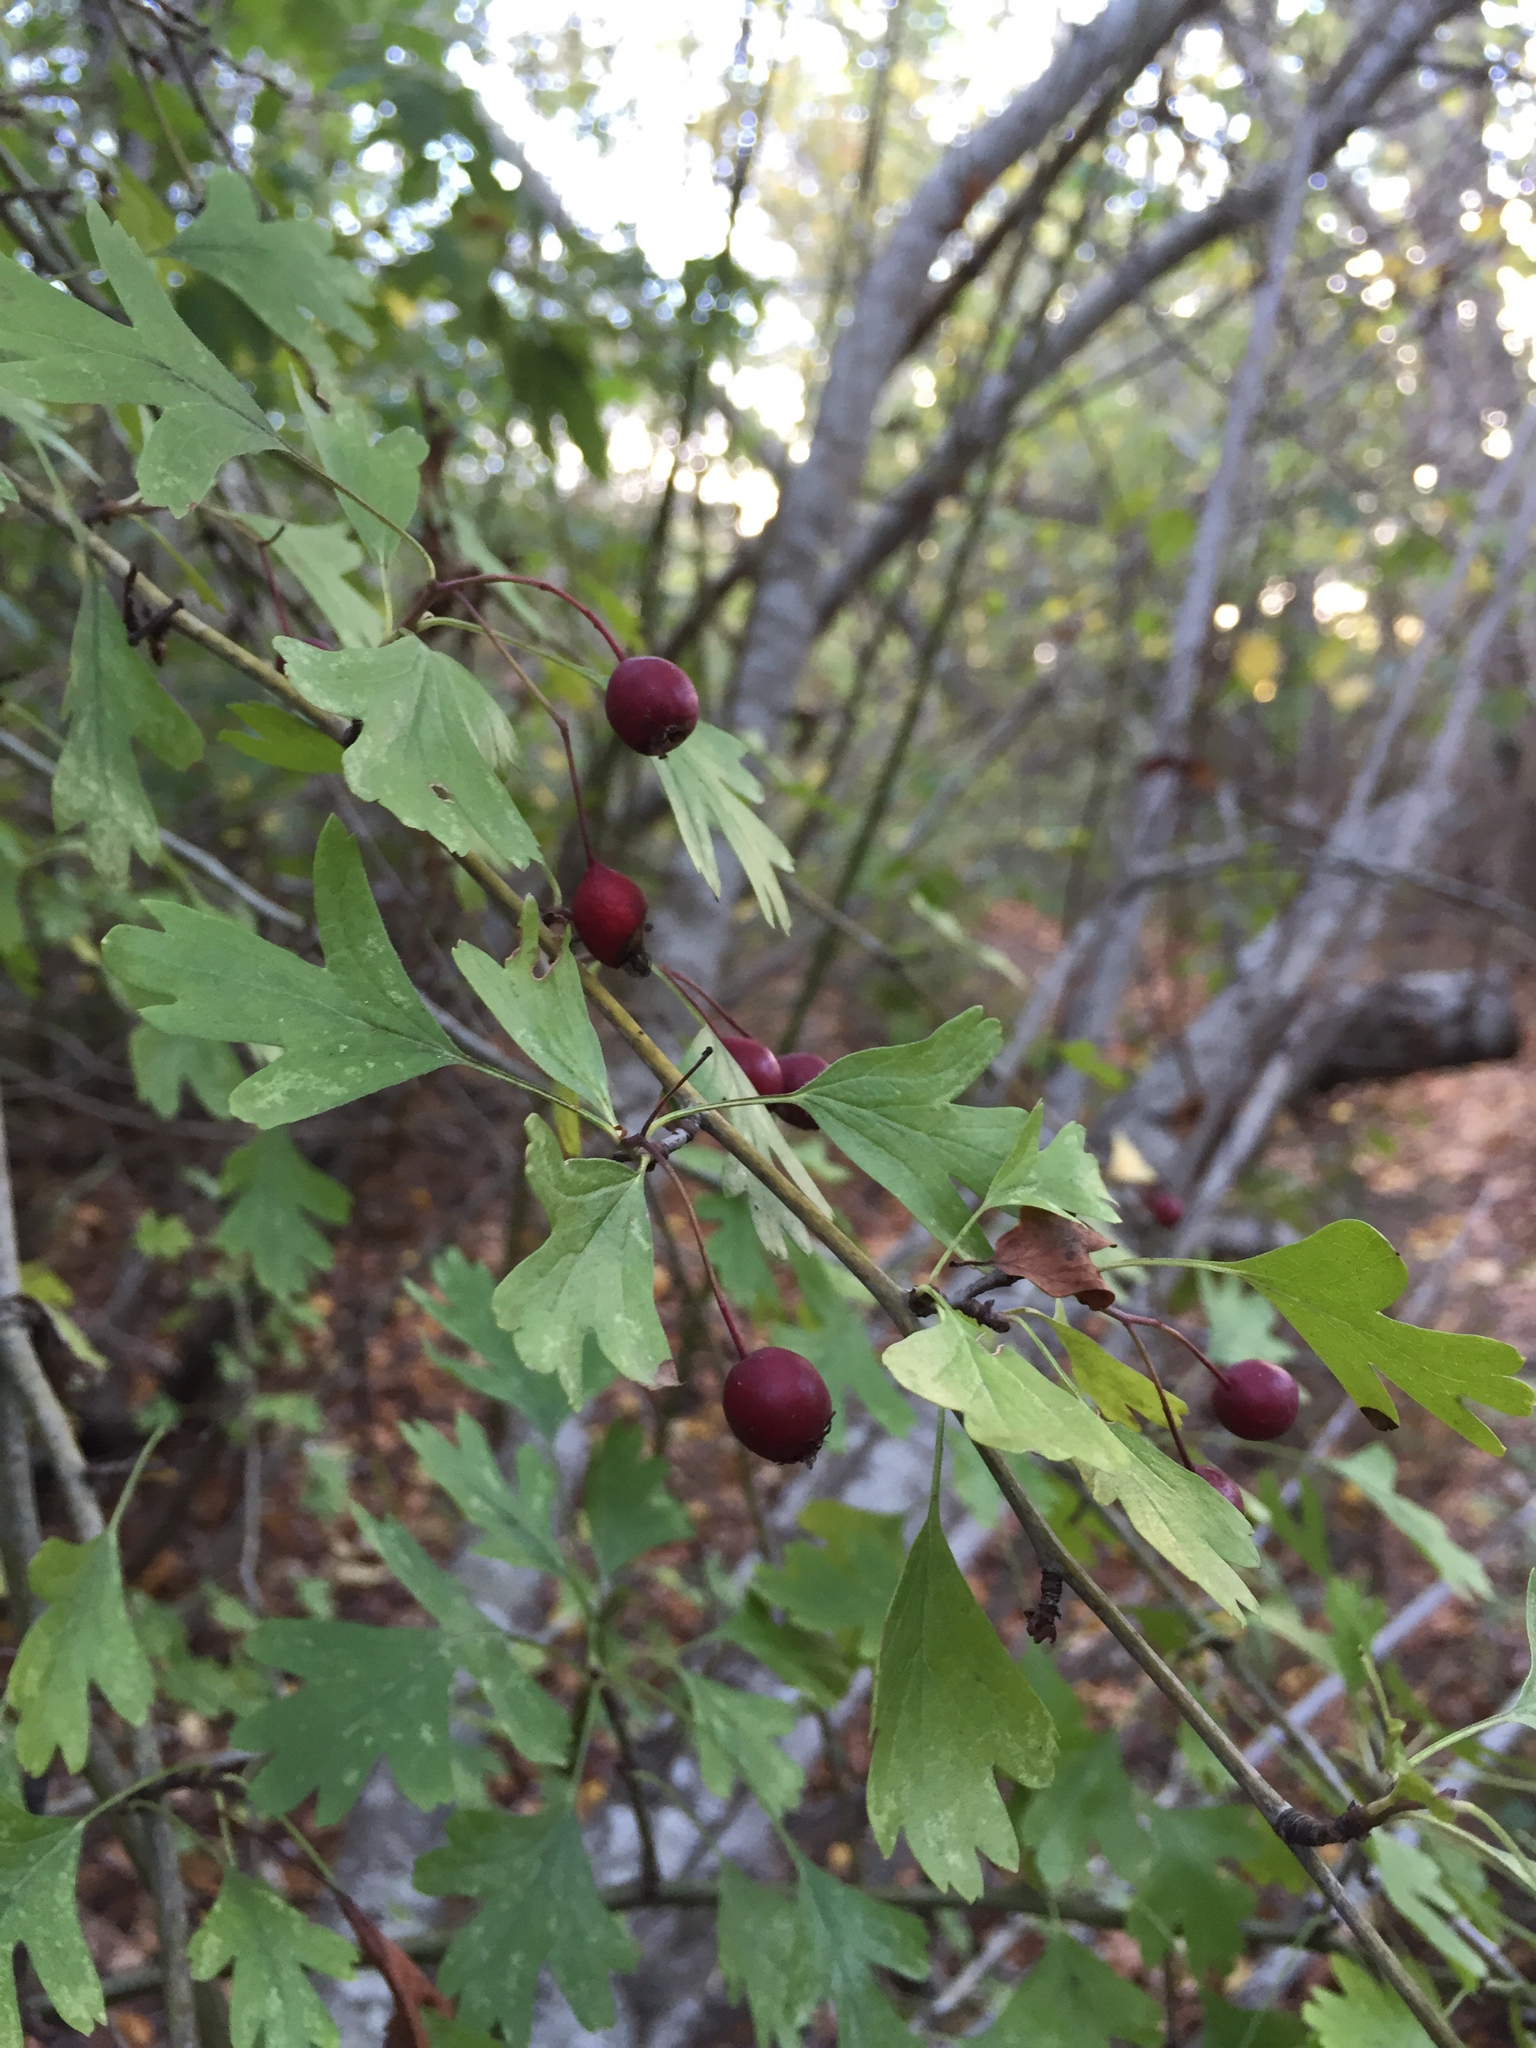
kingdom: Plantae
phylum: Tracheophyta
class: Magnoliopsida
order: Rosales
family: Rosaceae
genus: Crataegus
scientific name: Crataegus monogyna
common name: Hawthorn
